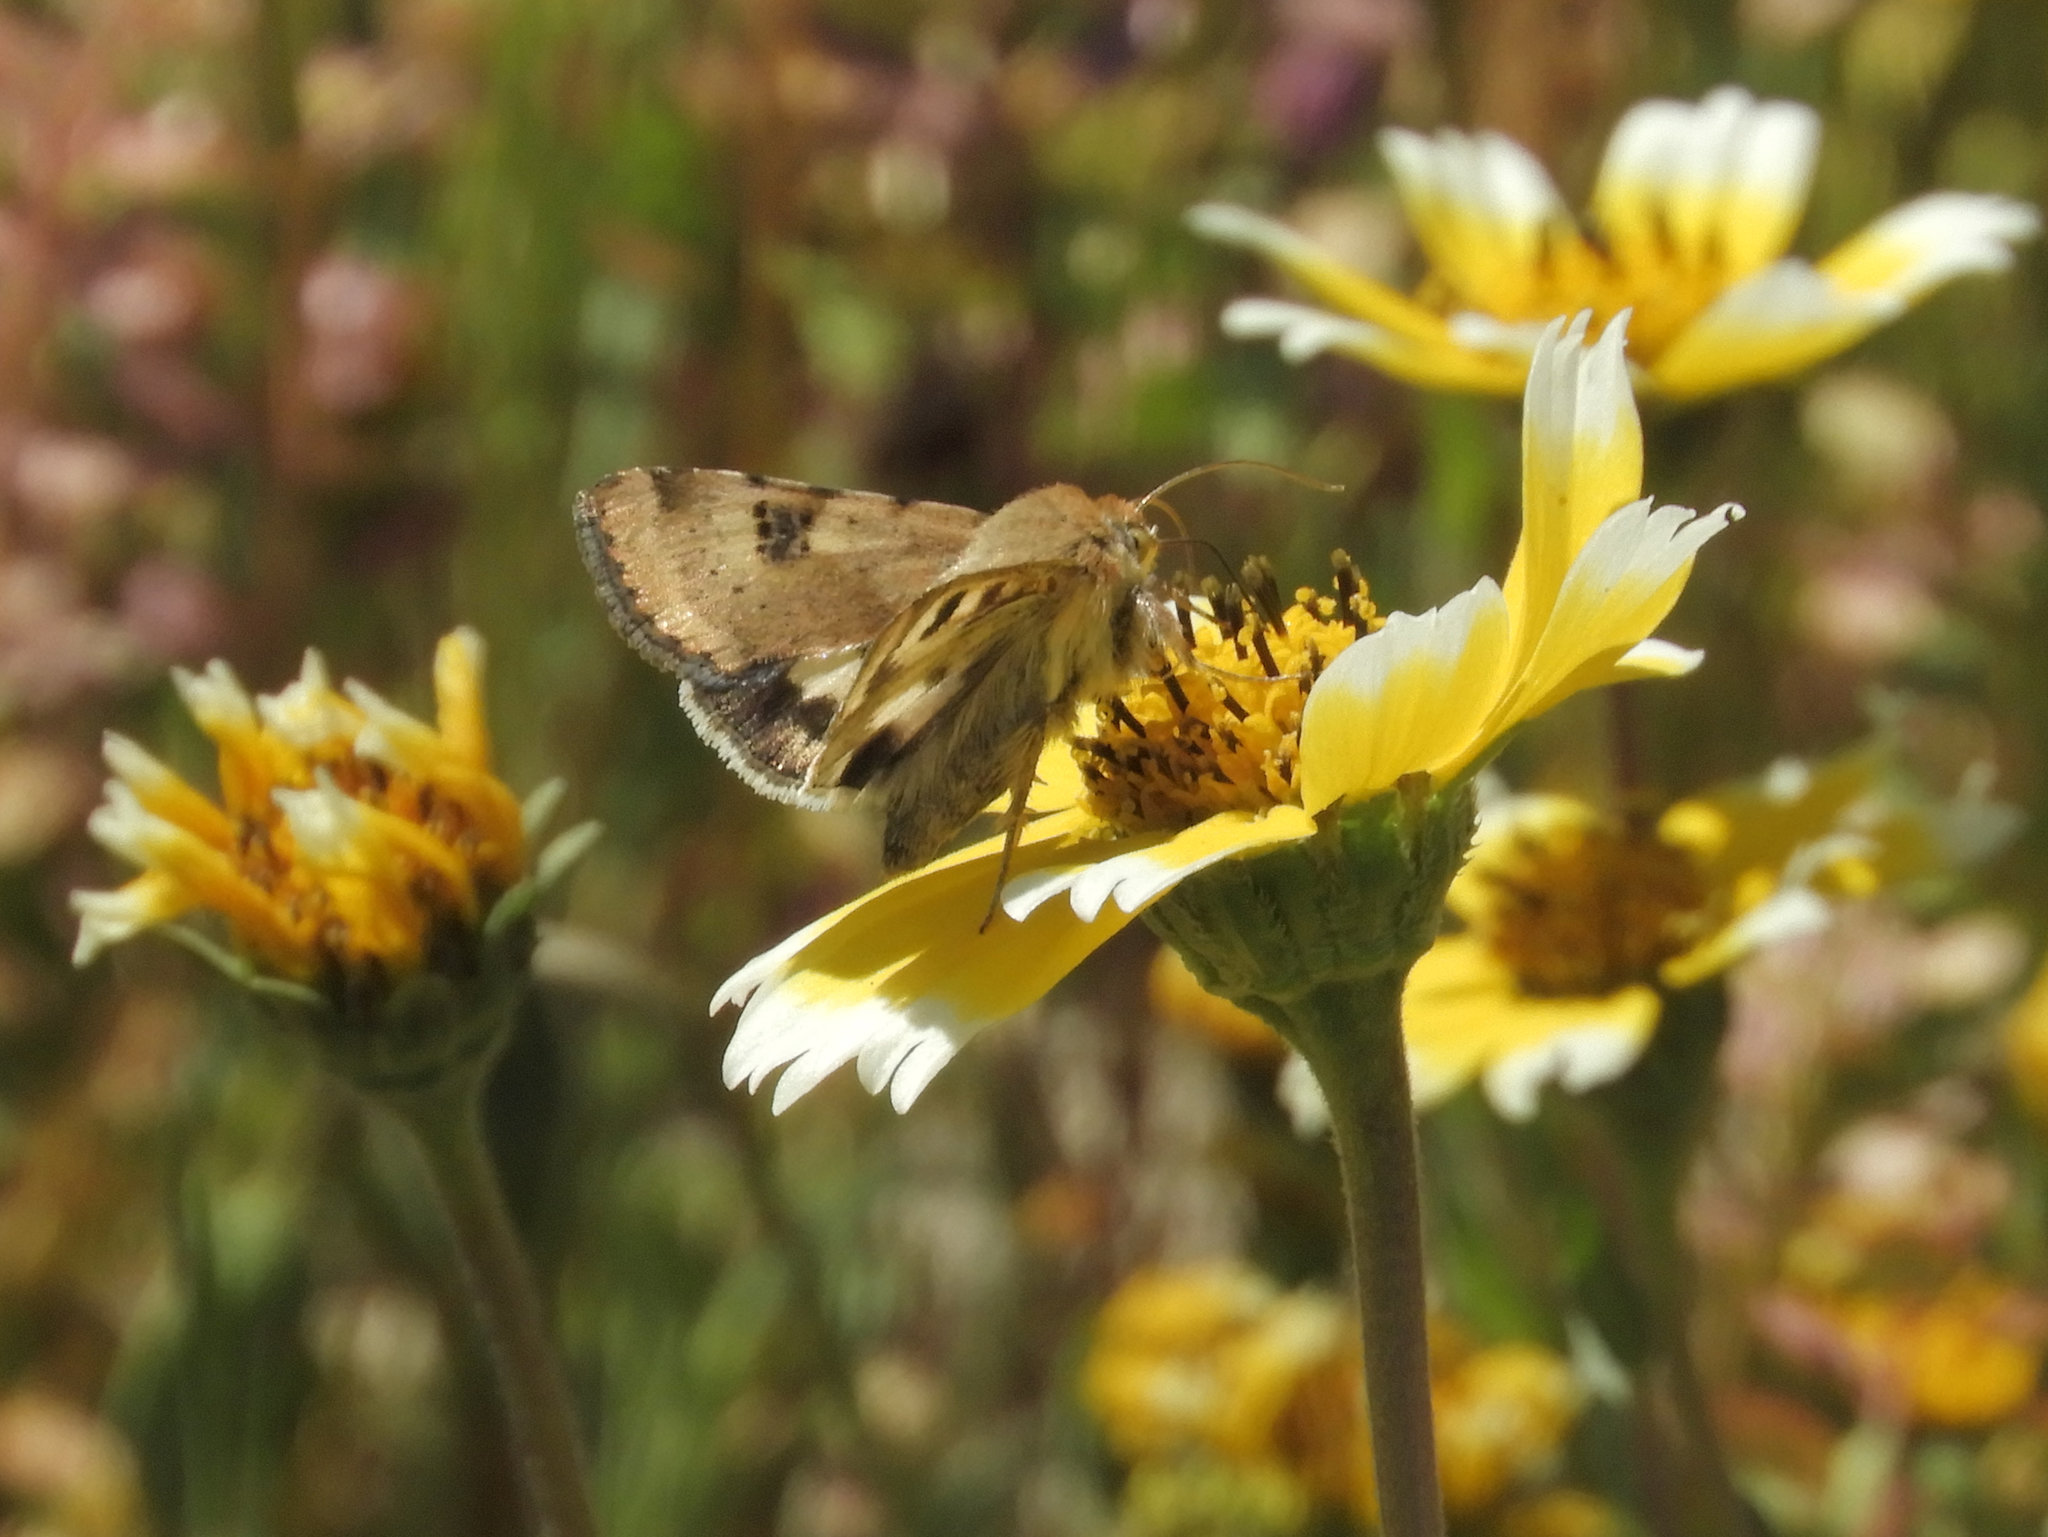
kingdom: Animalia
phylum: Arthropoda
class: Insecta
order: Lepidoptera
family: Noctuidae
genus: Heliothis
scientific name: Heliothis phloxiphaga
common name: Darker spotted straw moth
